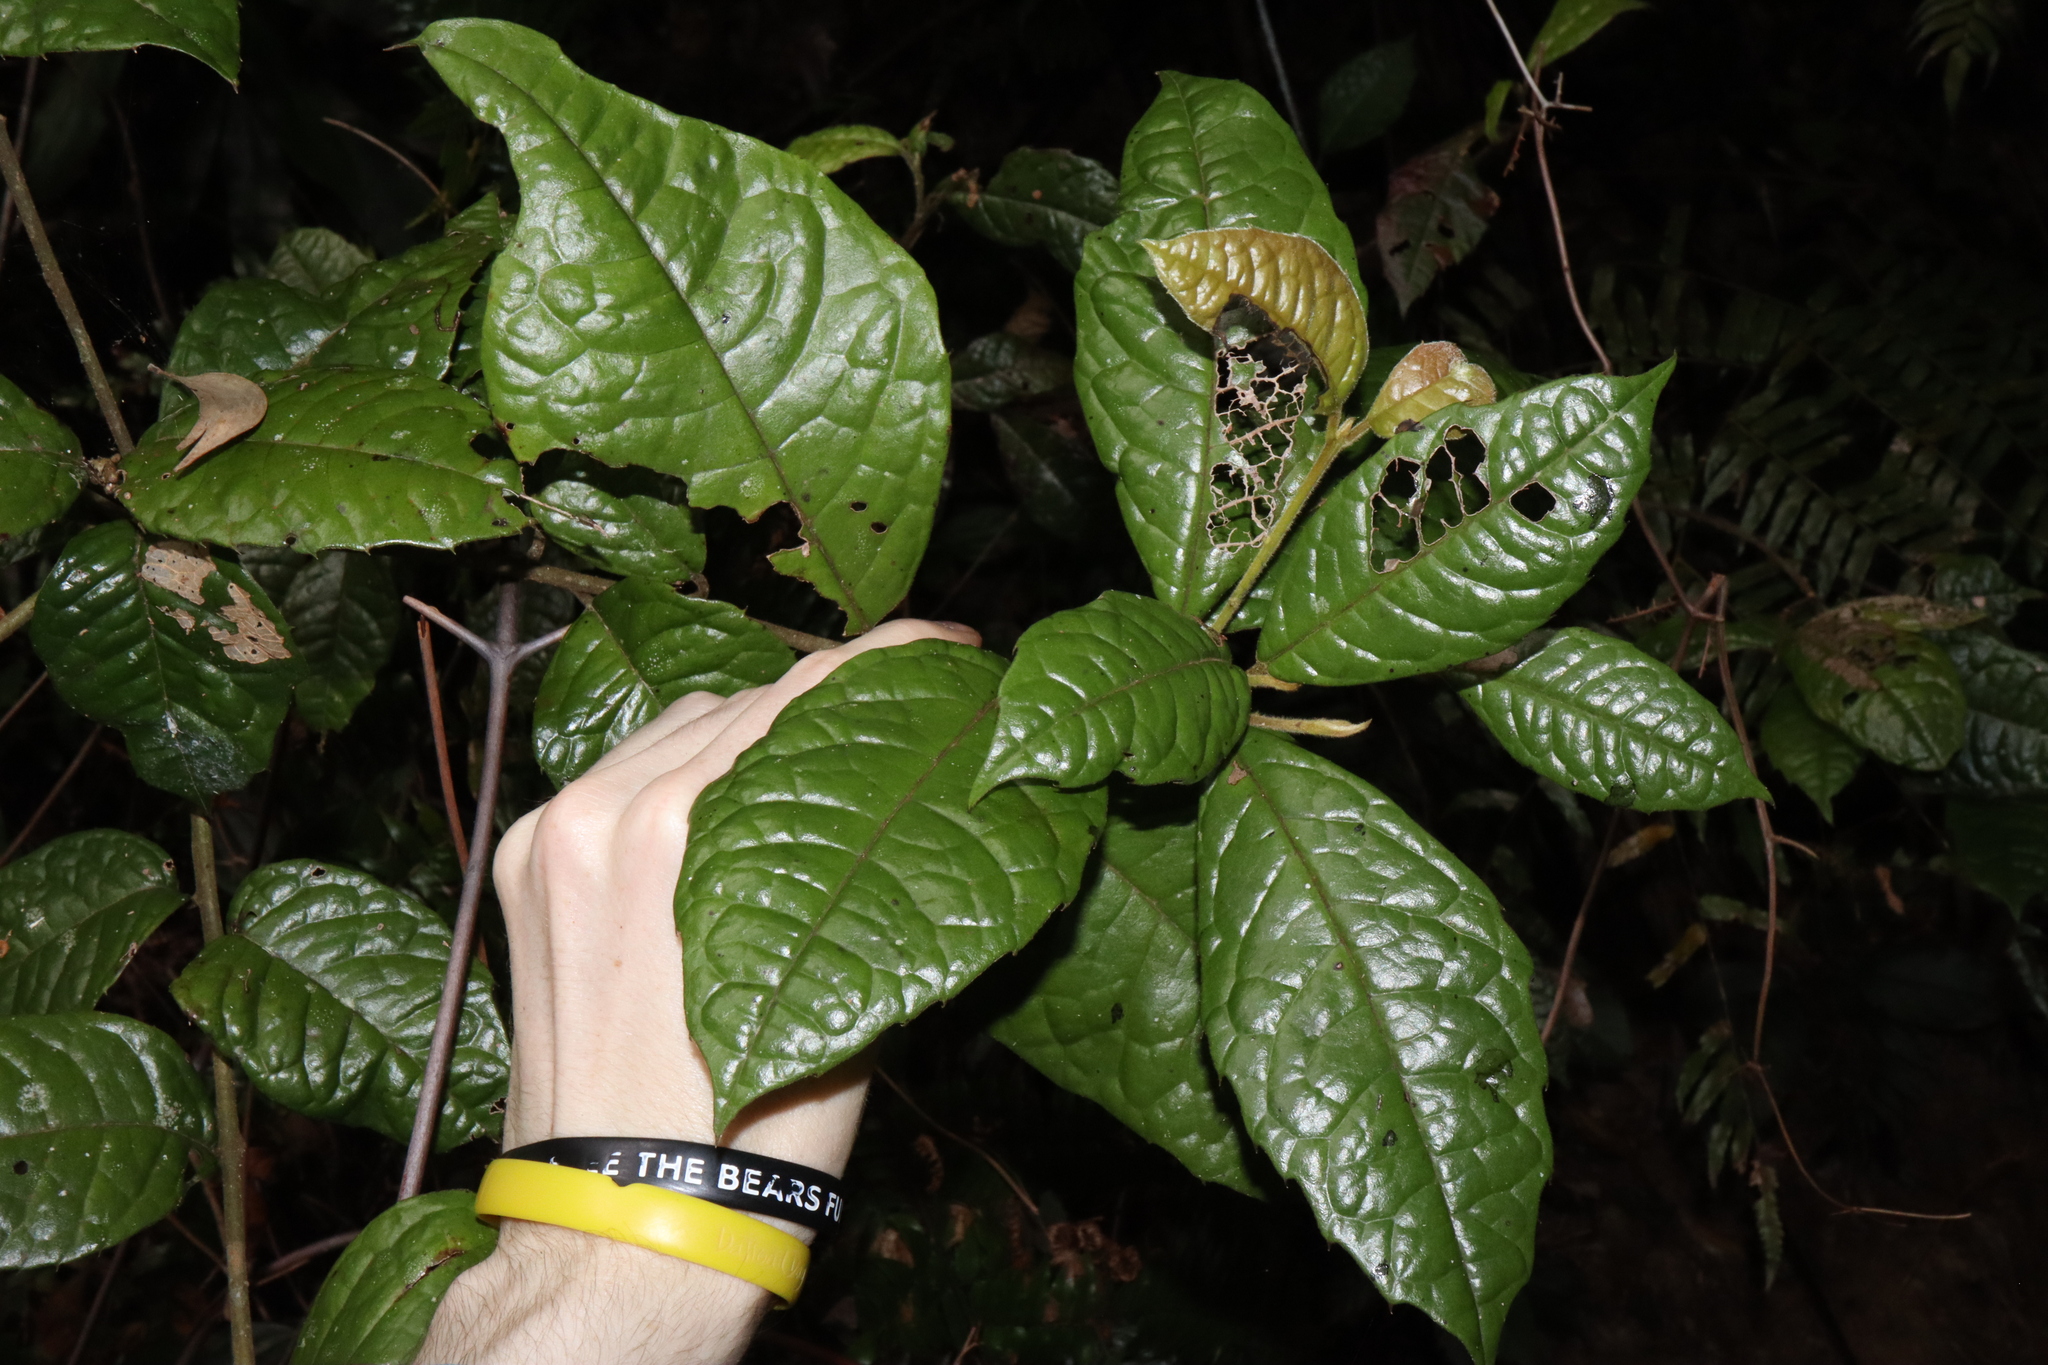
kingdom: Plantae
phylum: Tracheophyta
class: Magnoliopsida
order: Escalloniales
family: Escalloniaceae
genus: Polyosma
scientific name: Polyosma hirsuta
